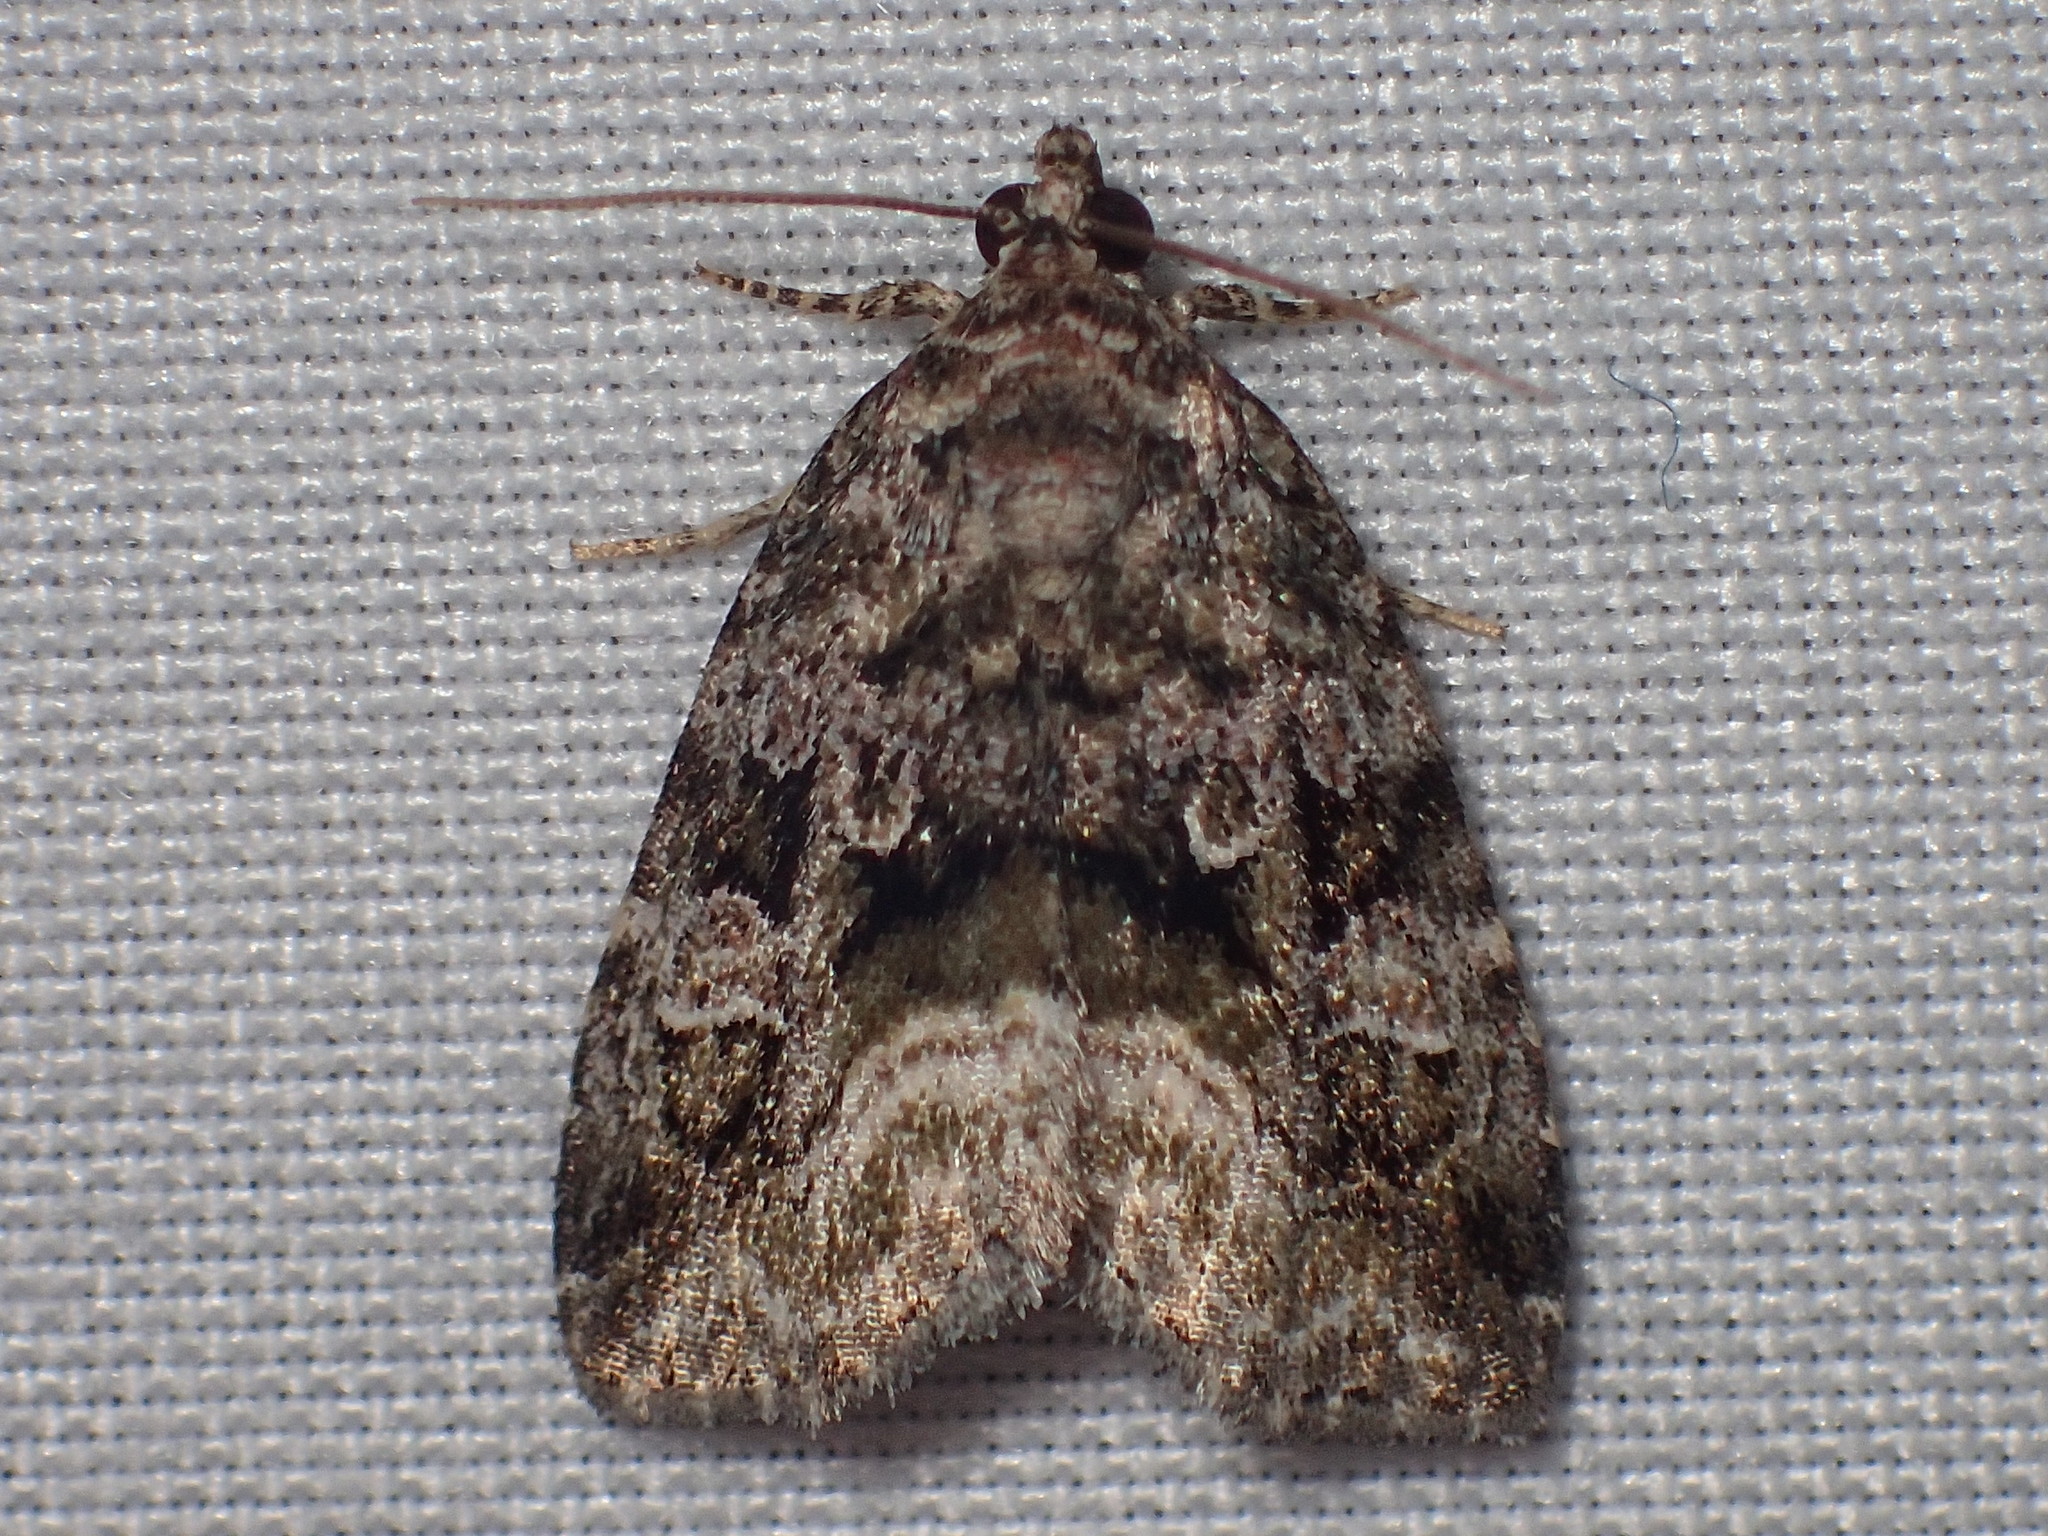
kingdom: Animalia
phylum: Arthropoda
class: Insecta
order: Lepidoptera
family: Noctuidae
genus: Protodeltote
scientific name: Protodeltote muscosula
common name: Large mossy glyph
